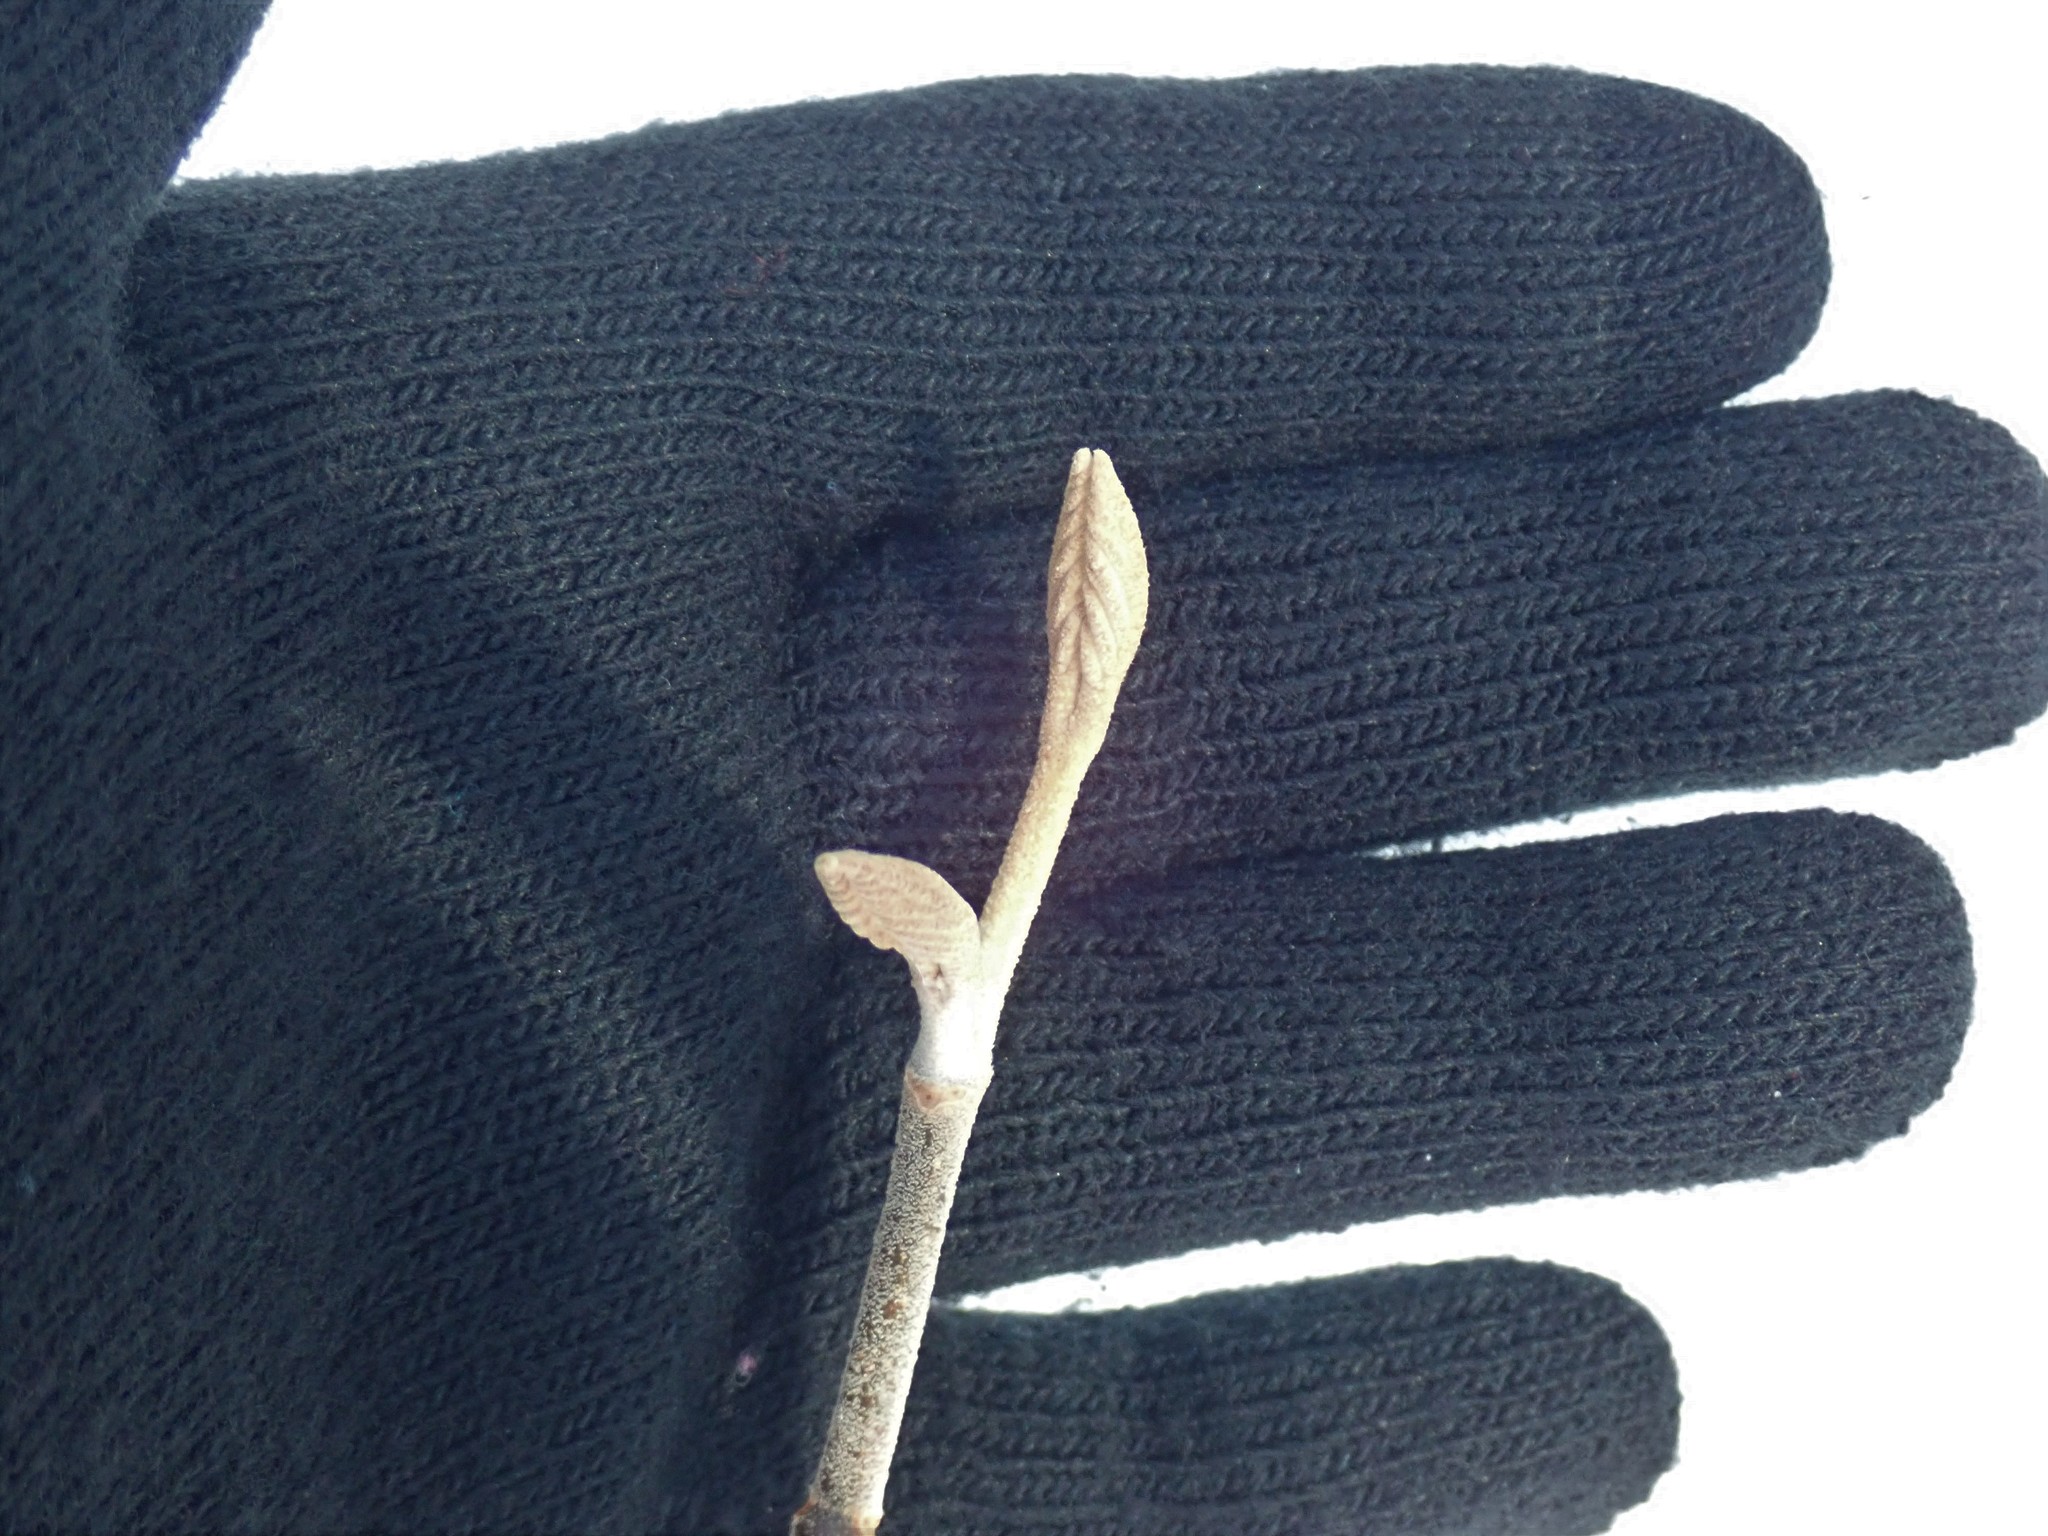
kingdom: Plantae
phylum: Tracheophyta
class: Magnoliopsida
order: Dipsacales
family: Viburnaceae
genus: Viburnum
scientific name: Viburnum lantanoides
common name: Hobblebush
